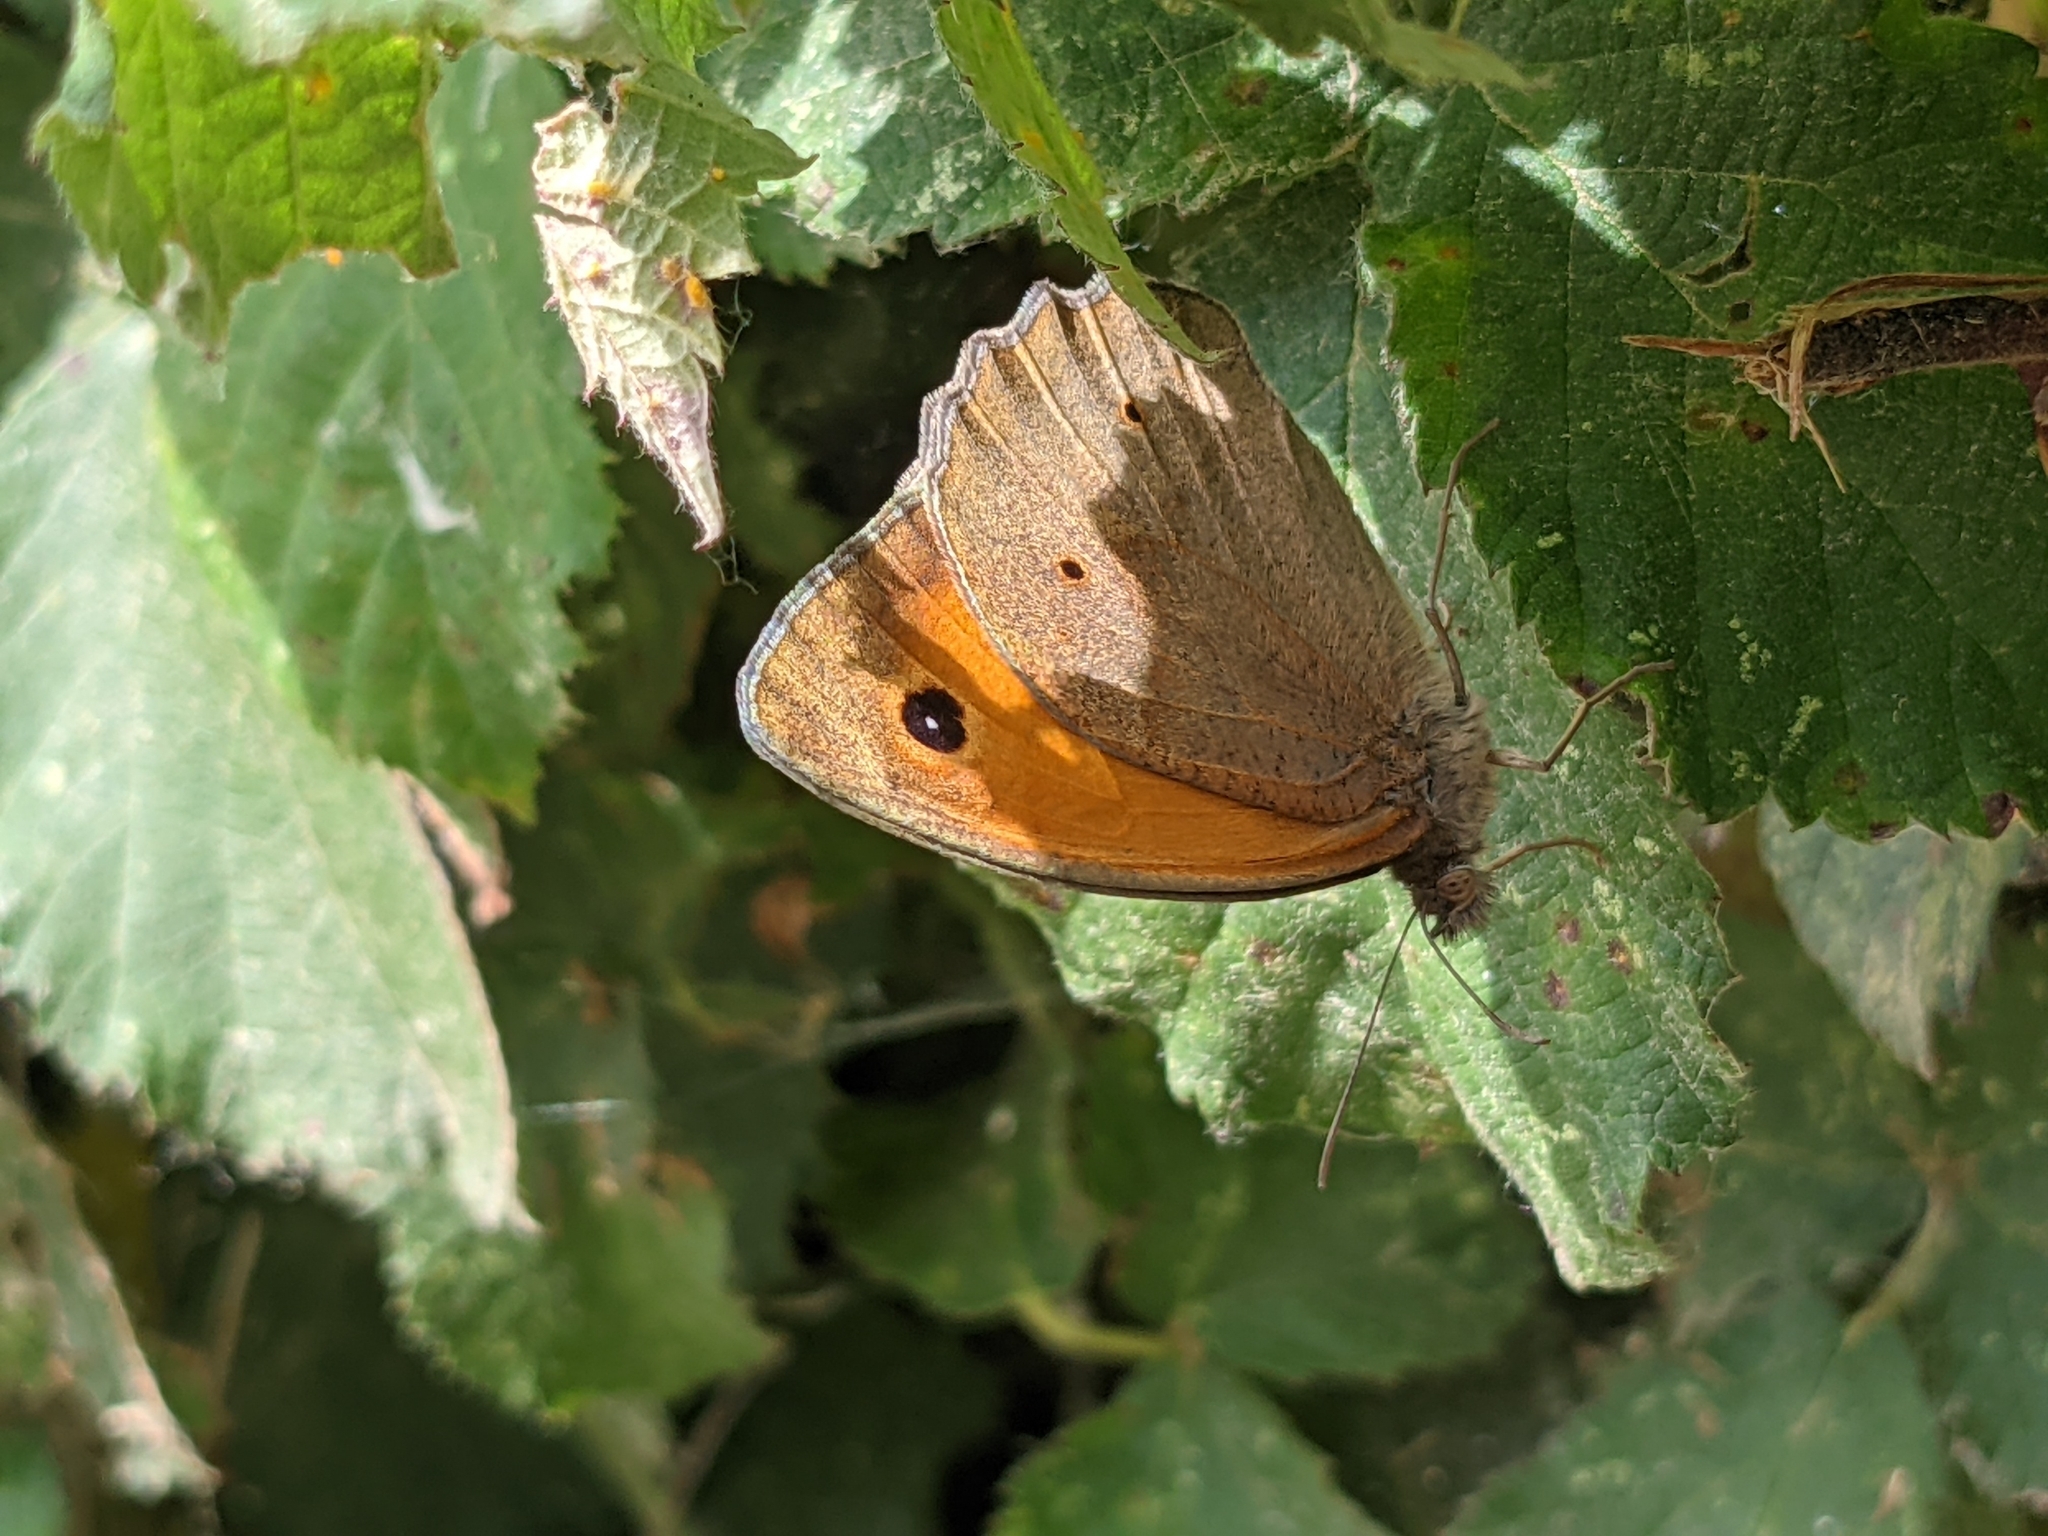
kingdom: Animalia
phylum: Arthropoda
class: Insecta
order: Lepidoptera
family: Nymphalidae
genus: Maniola
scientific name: Maniola jurtina
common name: Meadow brown
